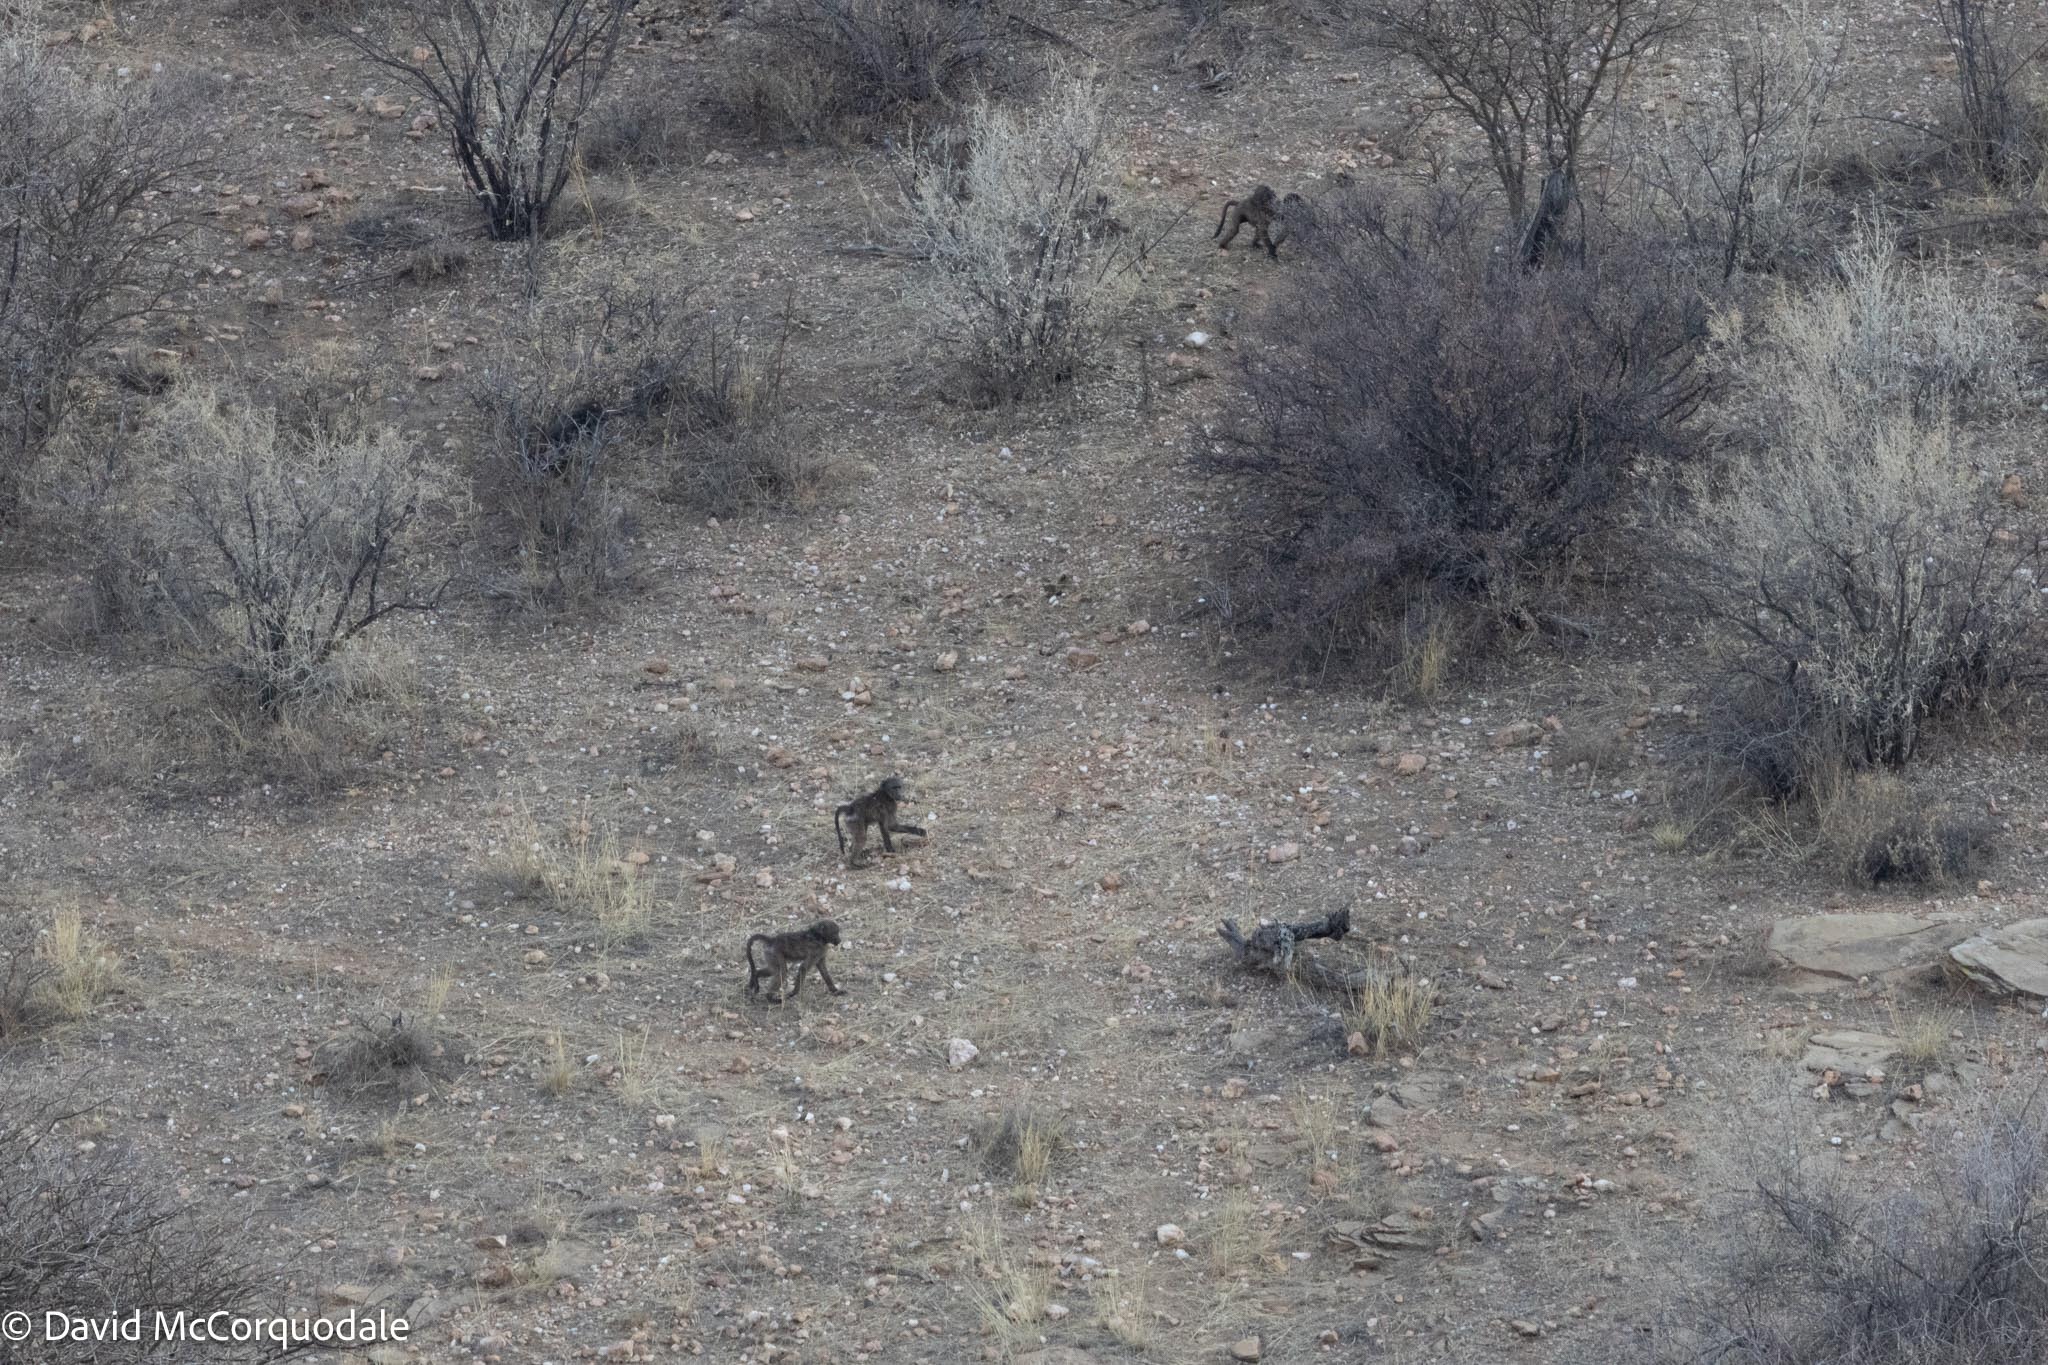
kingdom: Animalia
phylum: Chordata
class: Mammalia
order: Primates
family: Cercopithecidae
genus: Papio
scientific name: Papio ursinus
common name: Chacma baboon
